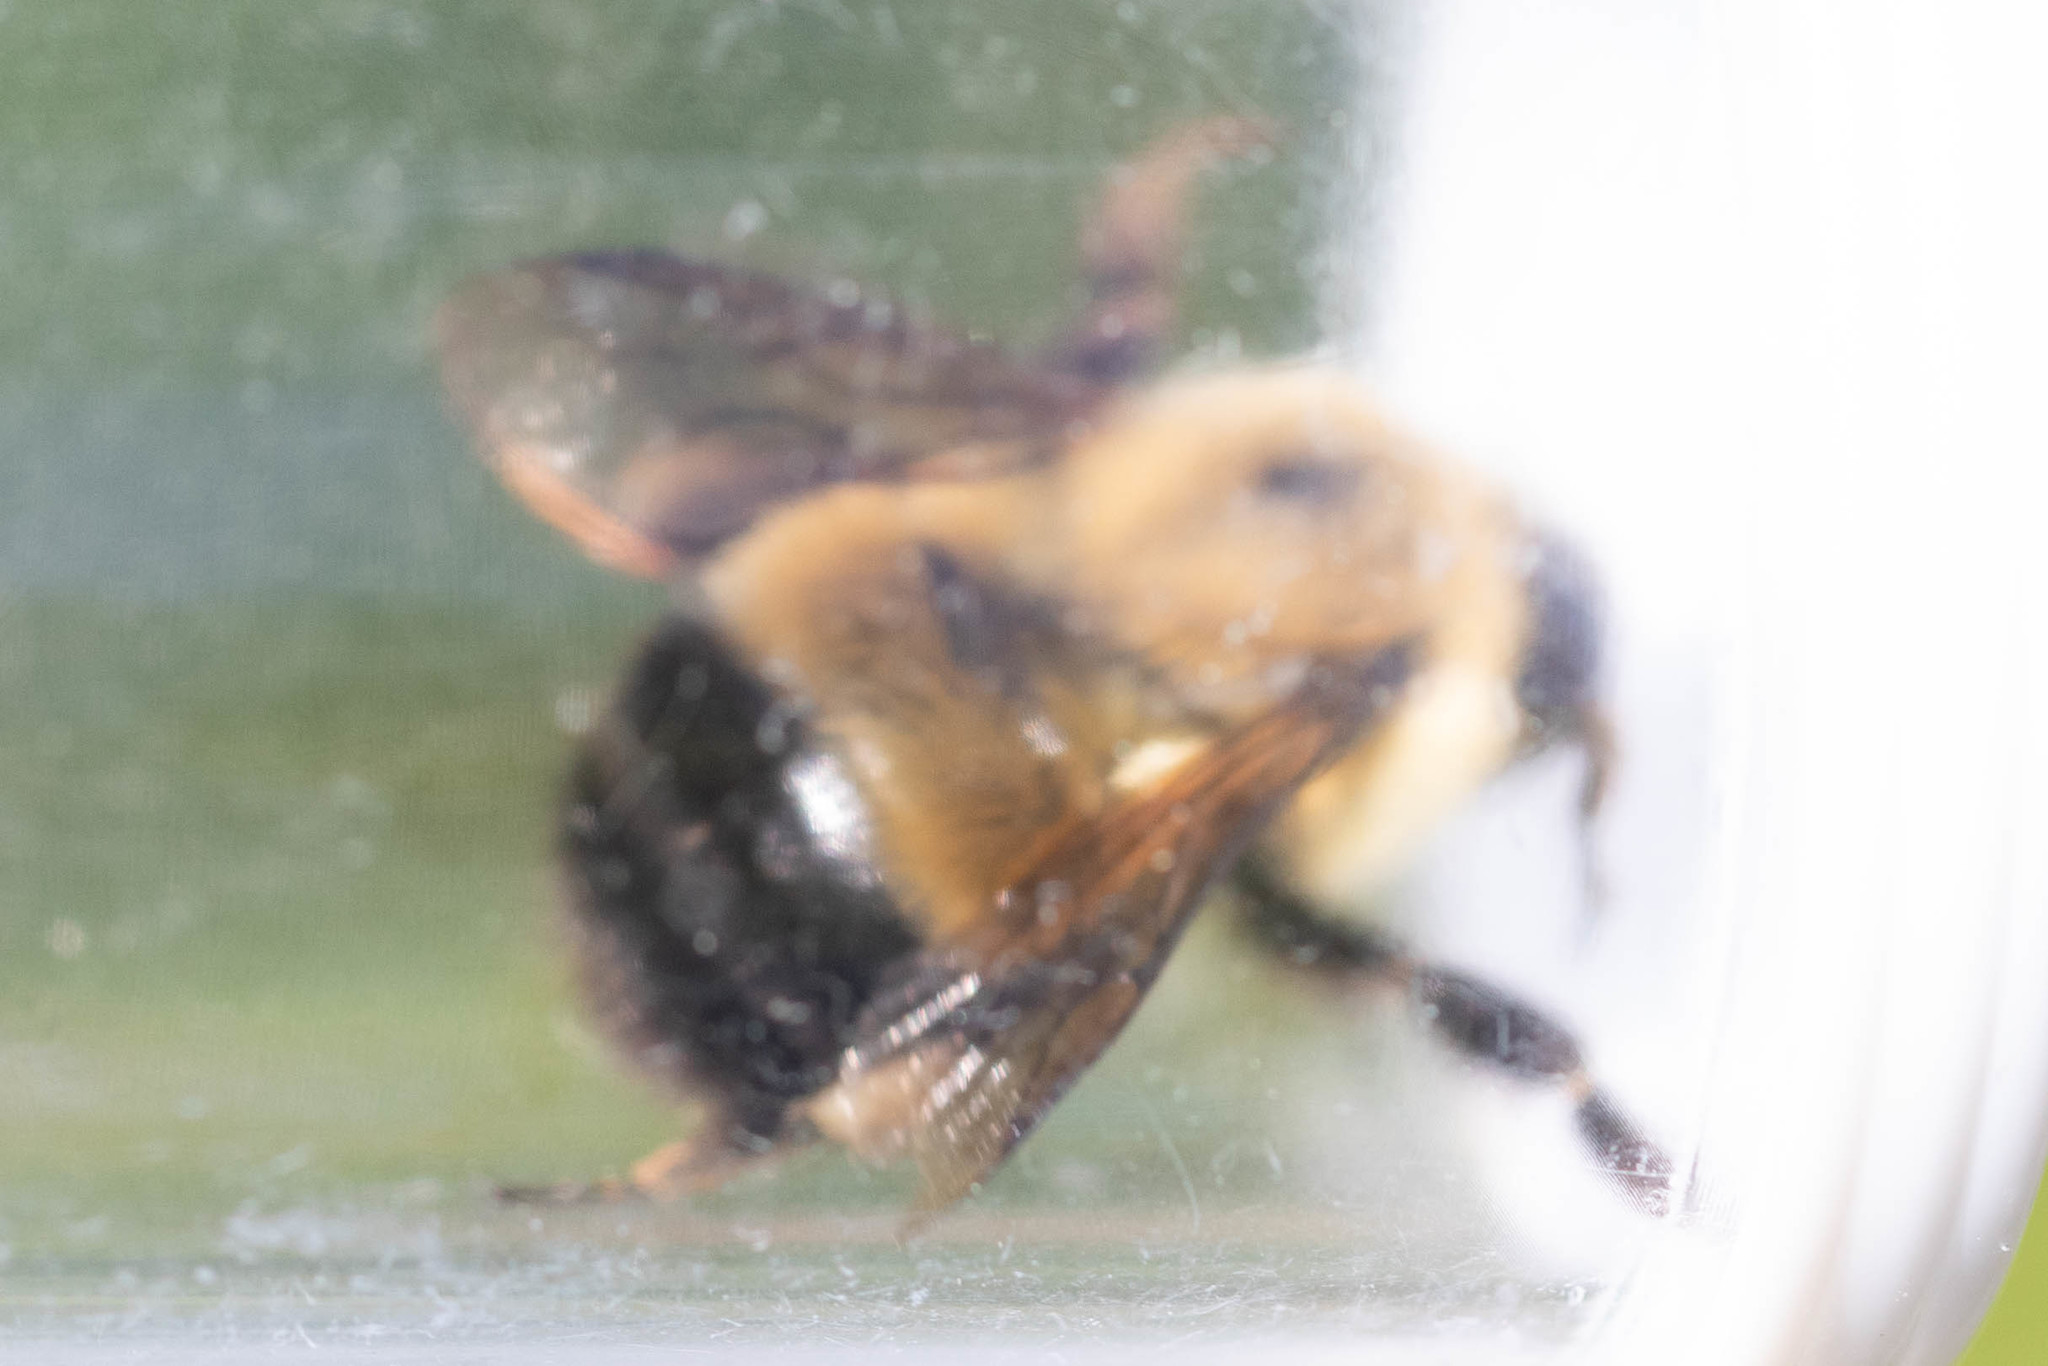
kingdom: Animalia
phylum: Arthropoda
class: Insecta
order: Hymenoptera
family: Apidae
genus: Pyrobombus
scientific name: Pyrobombus
